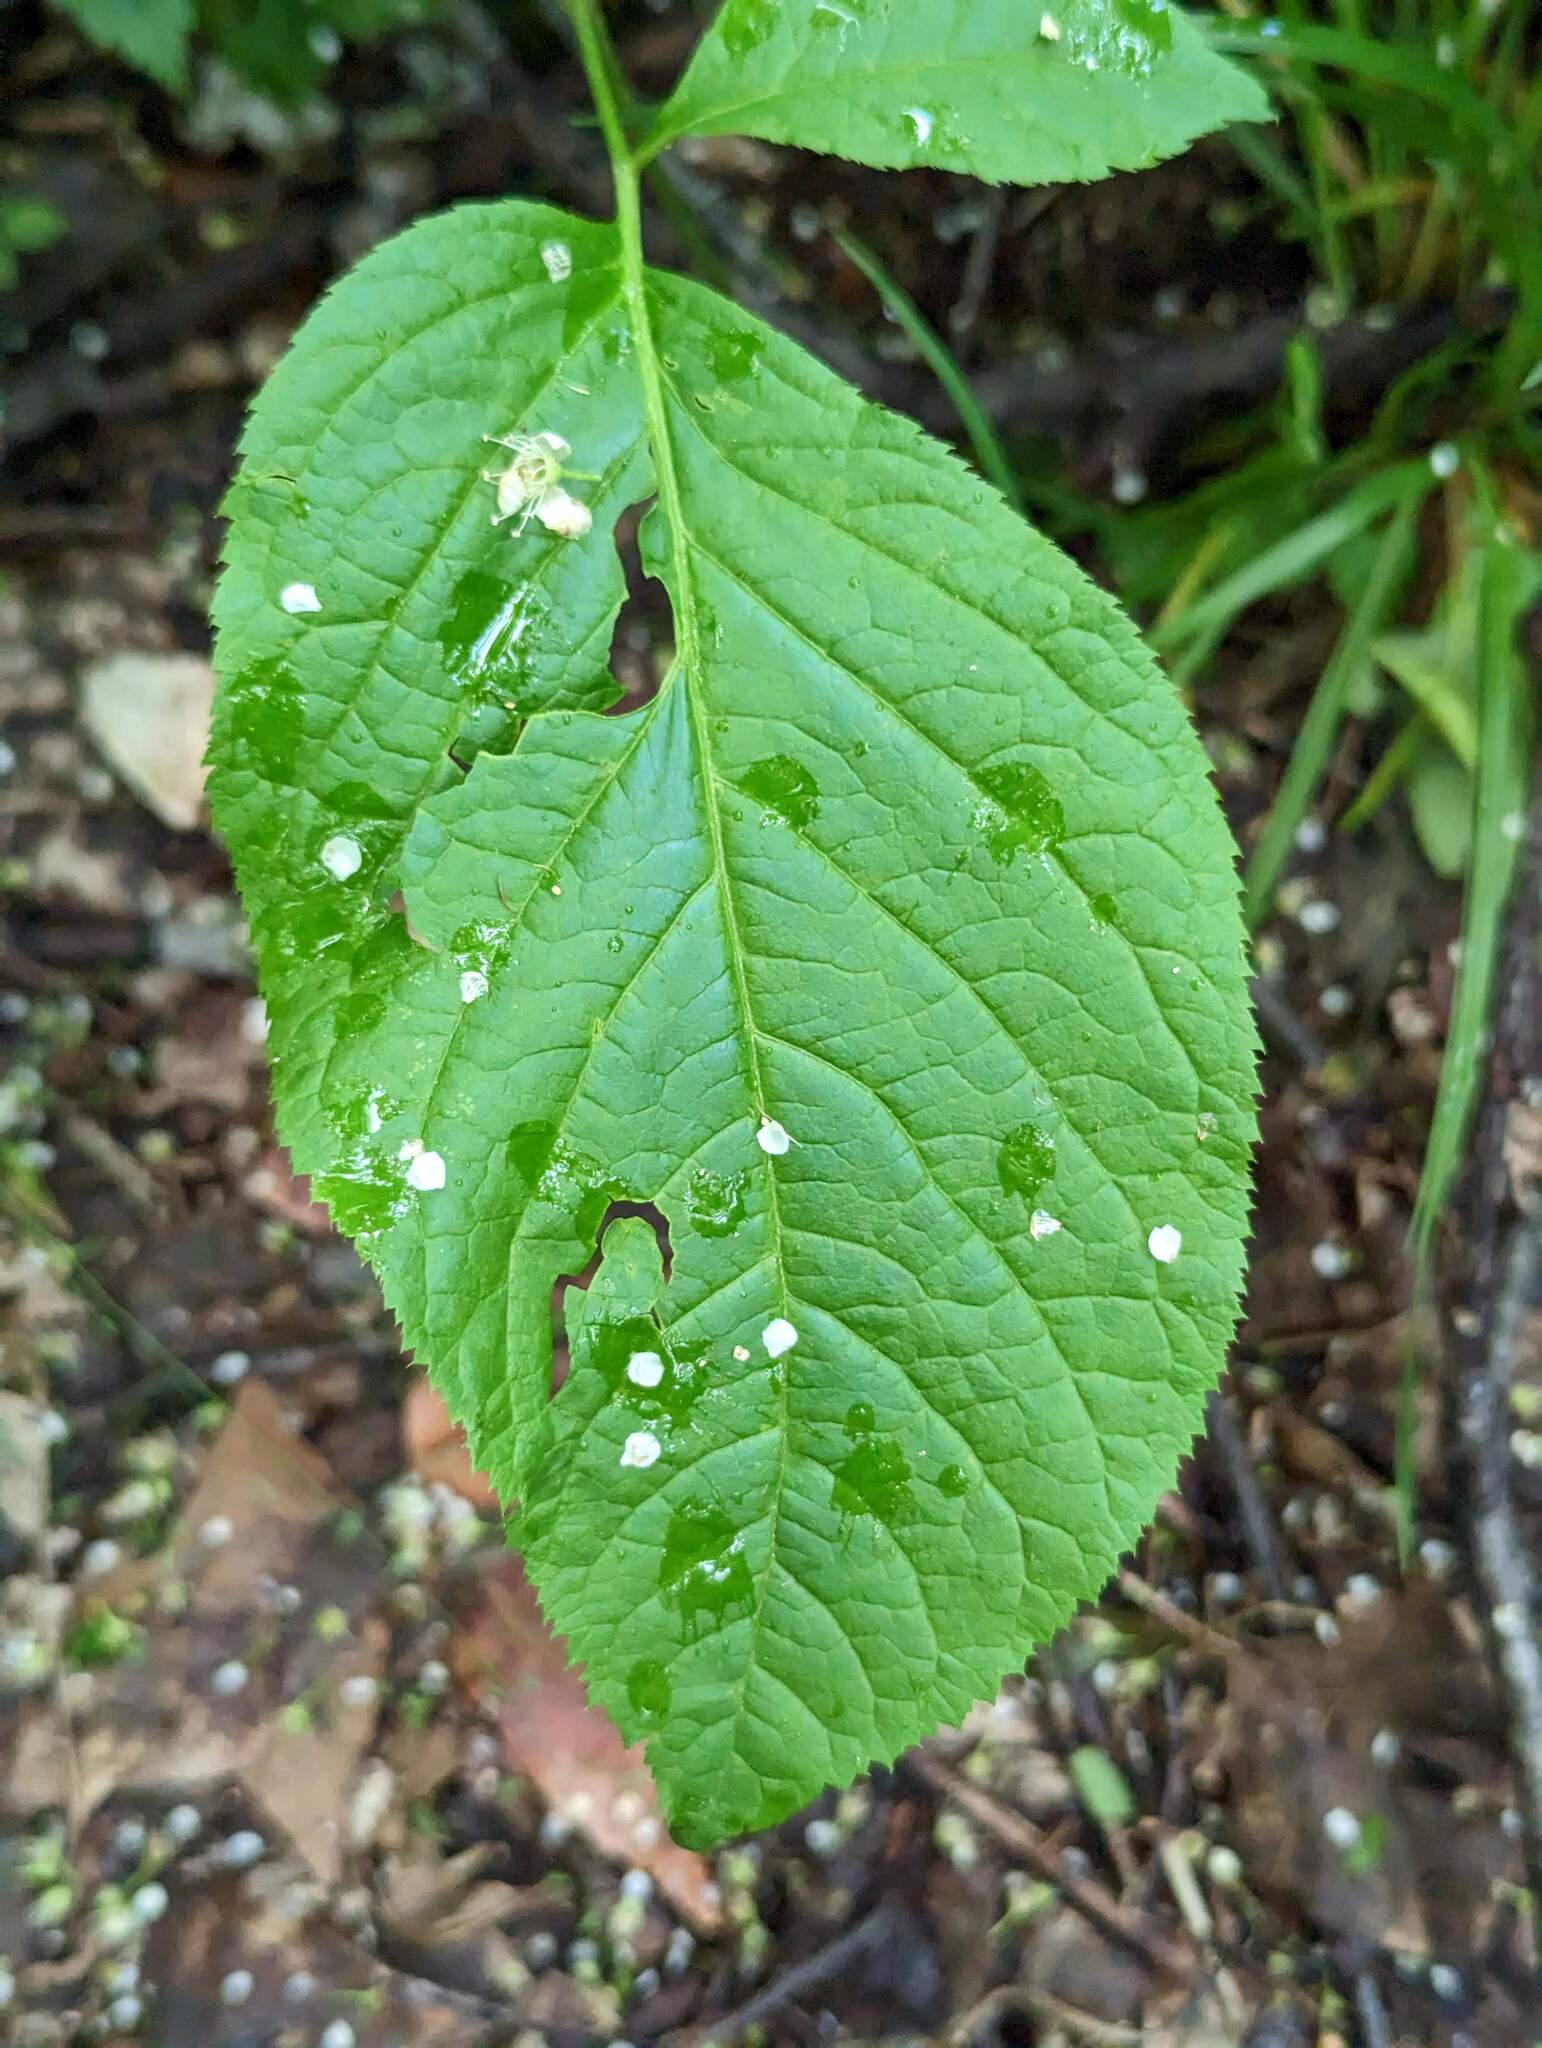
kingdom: Plantae
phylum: Tracheophyta
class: Magnoliopsida
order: Apiales
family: Araliaceae
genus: Aralia
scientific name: Aralia nudicaulis
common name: Wild sarsaparilla
